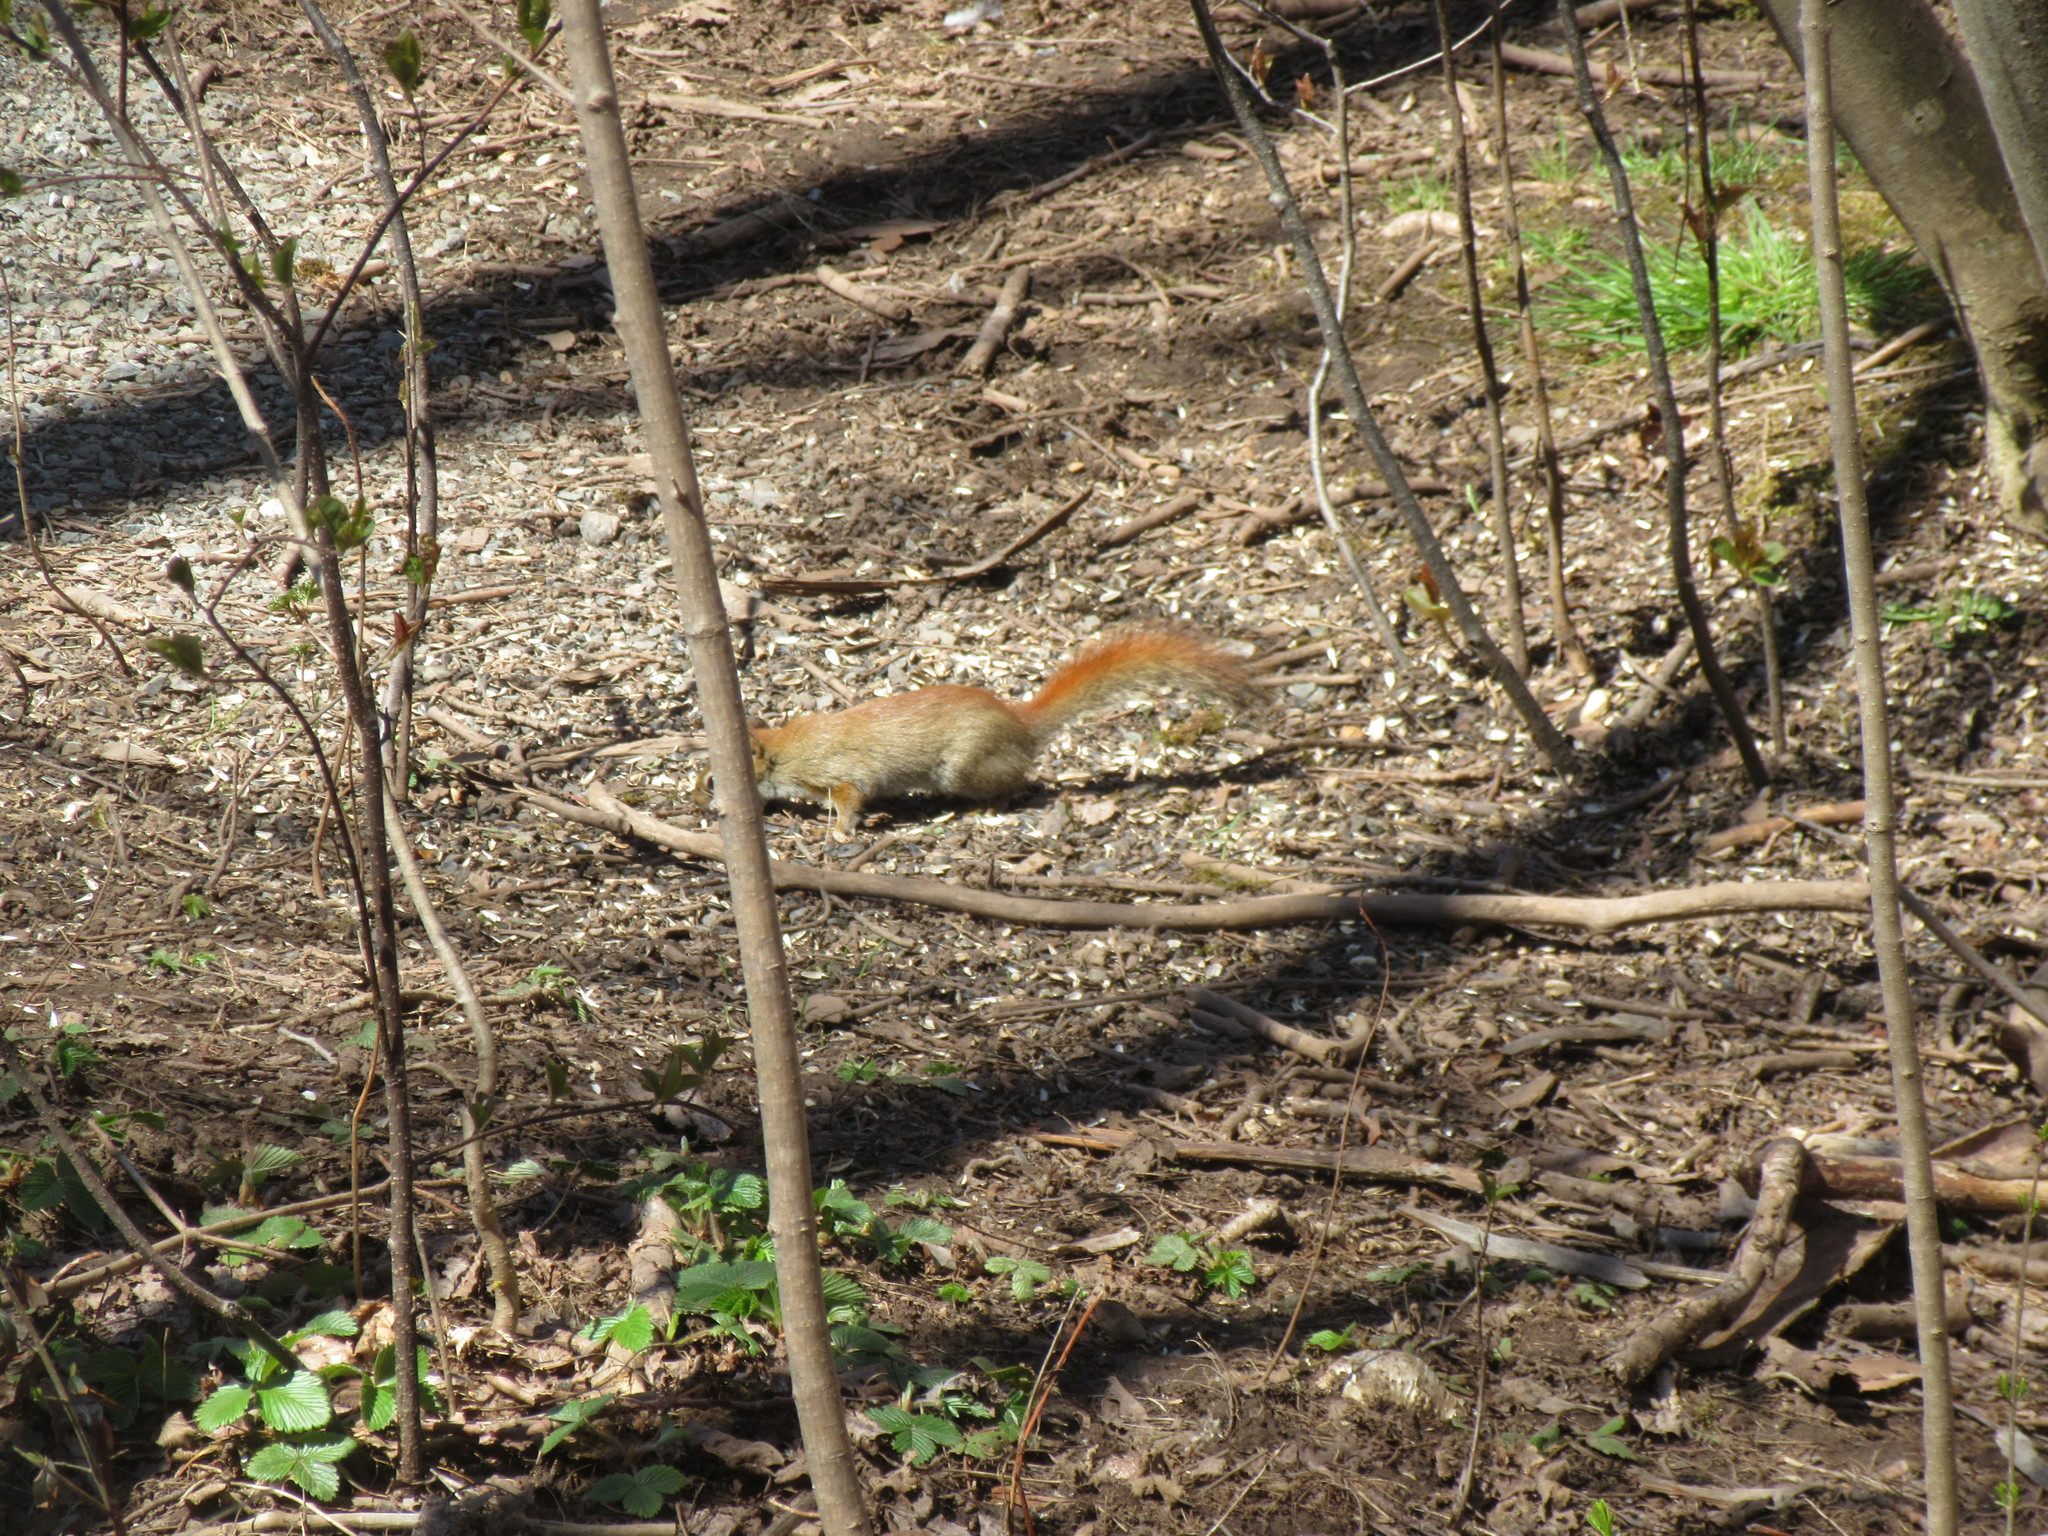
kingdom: Animalia
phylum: Chordata
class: Mammalia
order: Rodentia
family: Sciuridae
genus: Tamiasciurus
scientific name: Tamiasciurus hudsonicus
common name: Red squirrel
